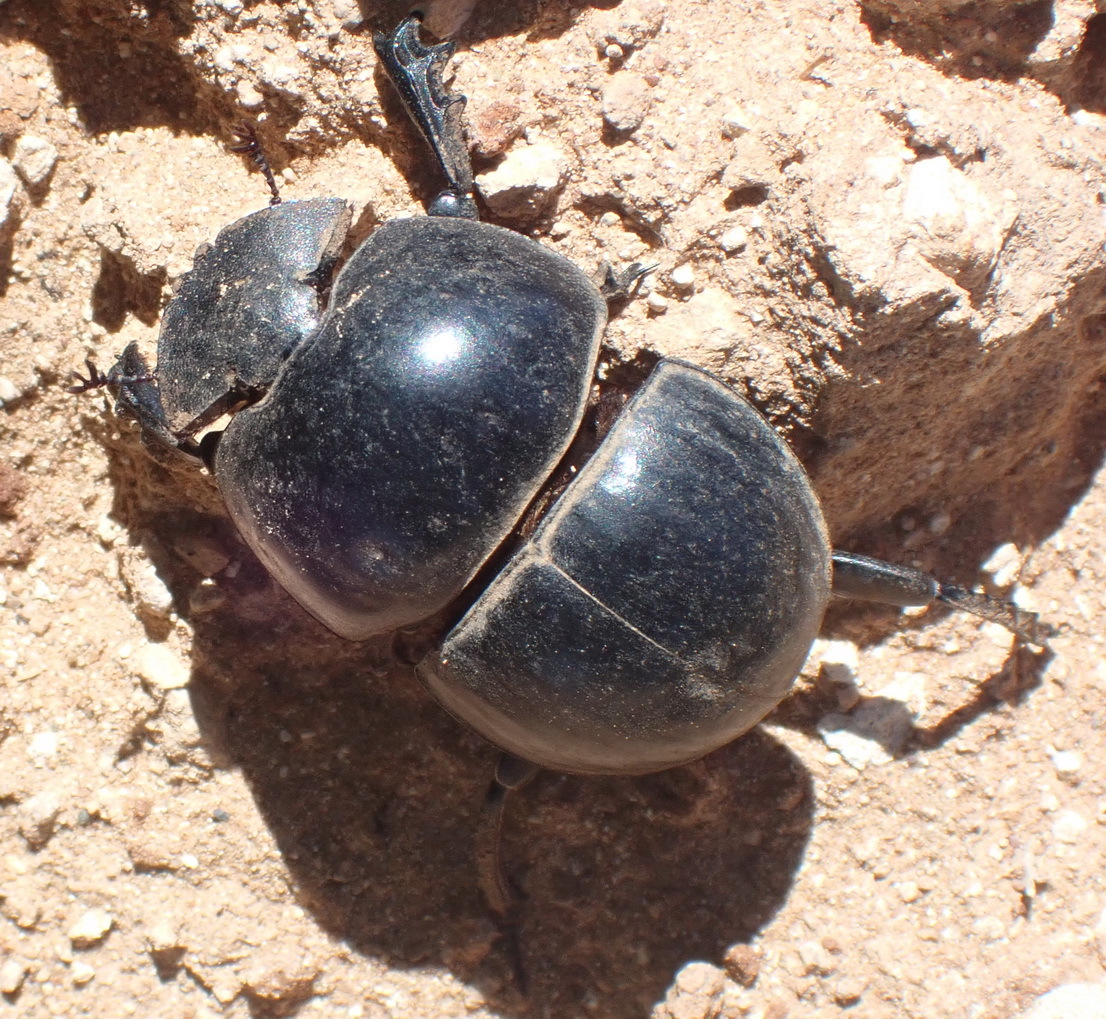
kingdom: Animalia
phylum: Arthropoda
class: Insecta
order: Coleoptera
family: Scarabaeidae
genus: Circellium
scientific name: Circellium bacchus
